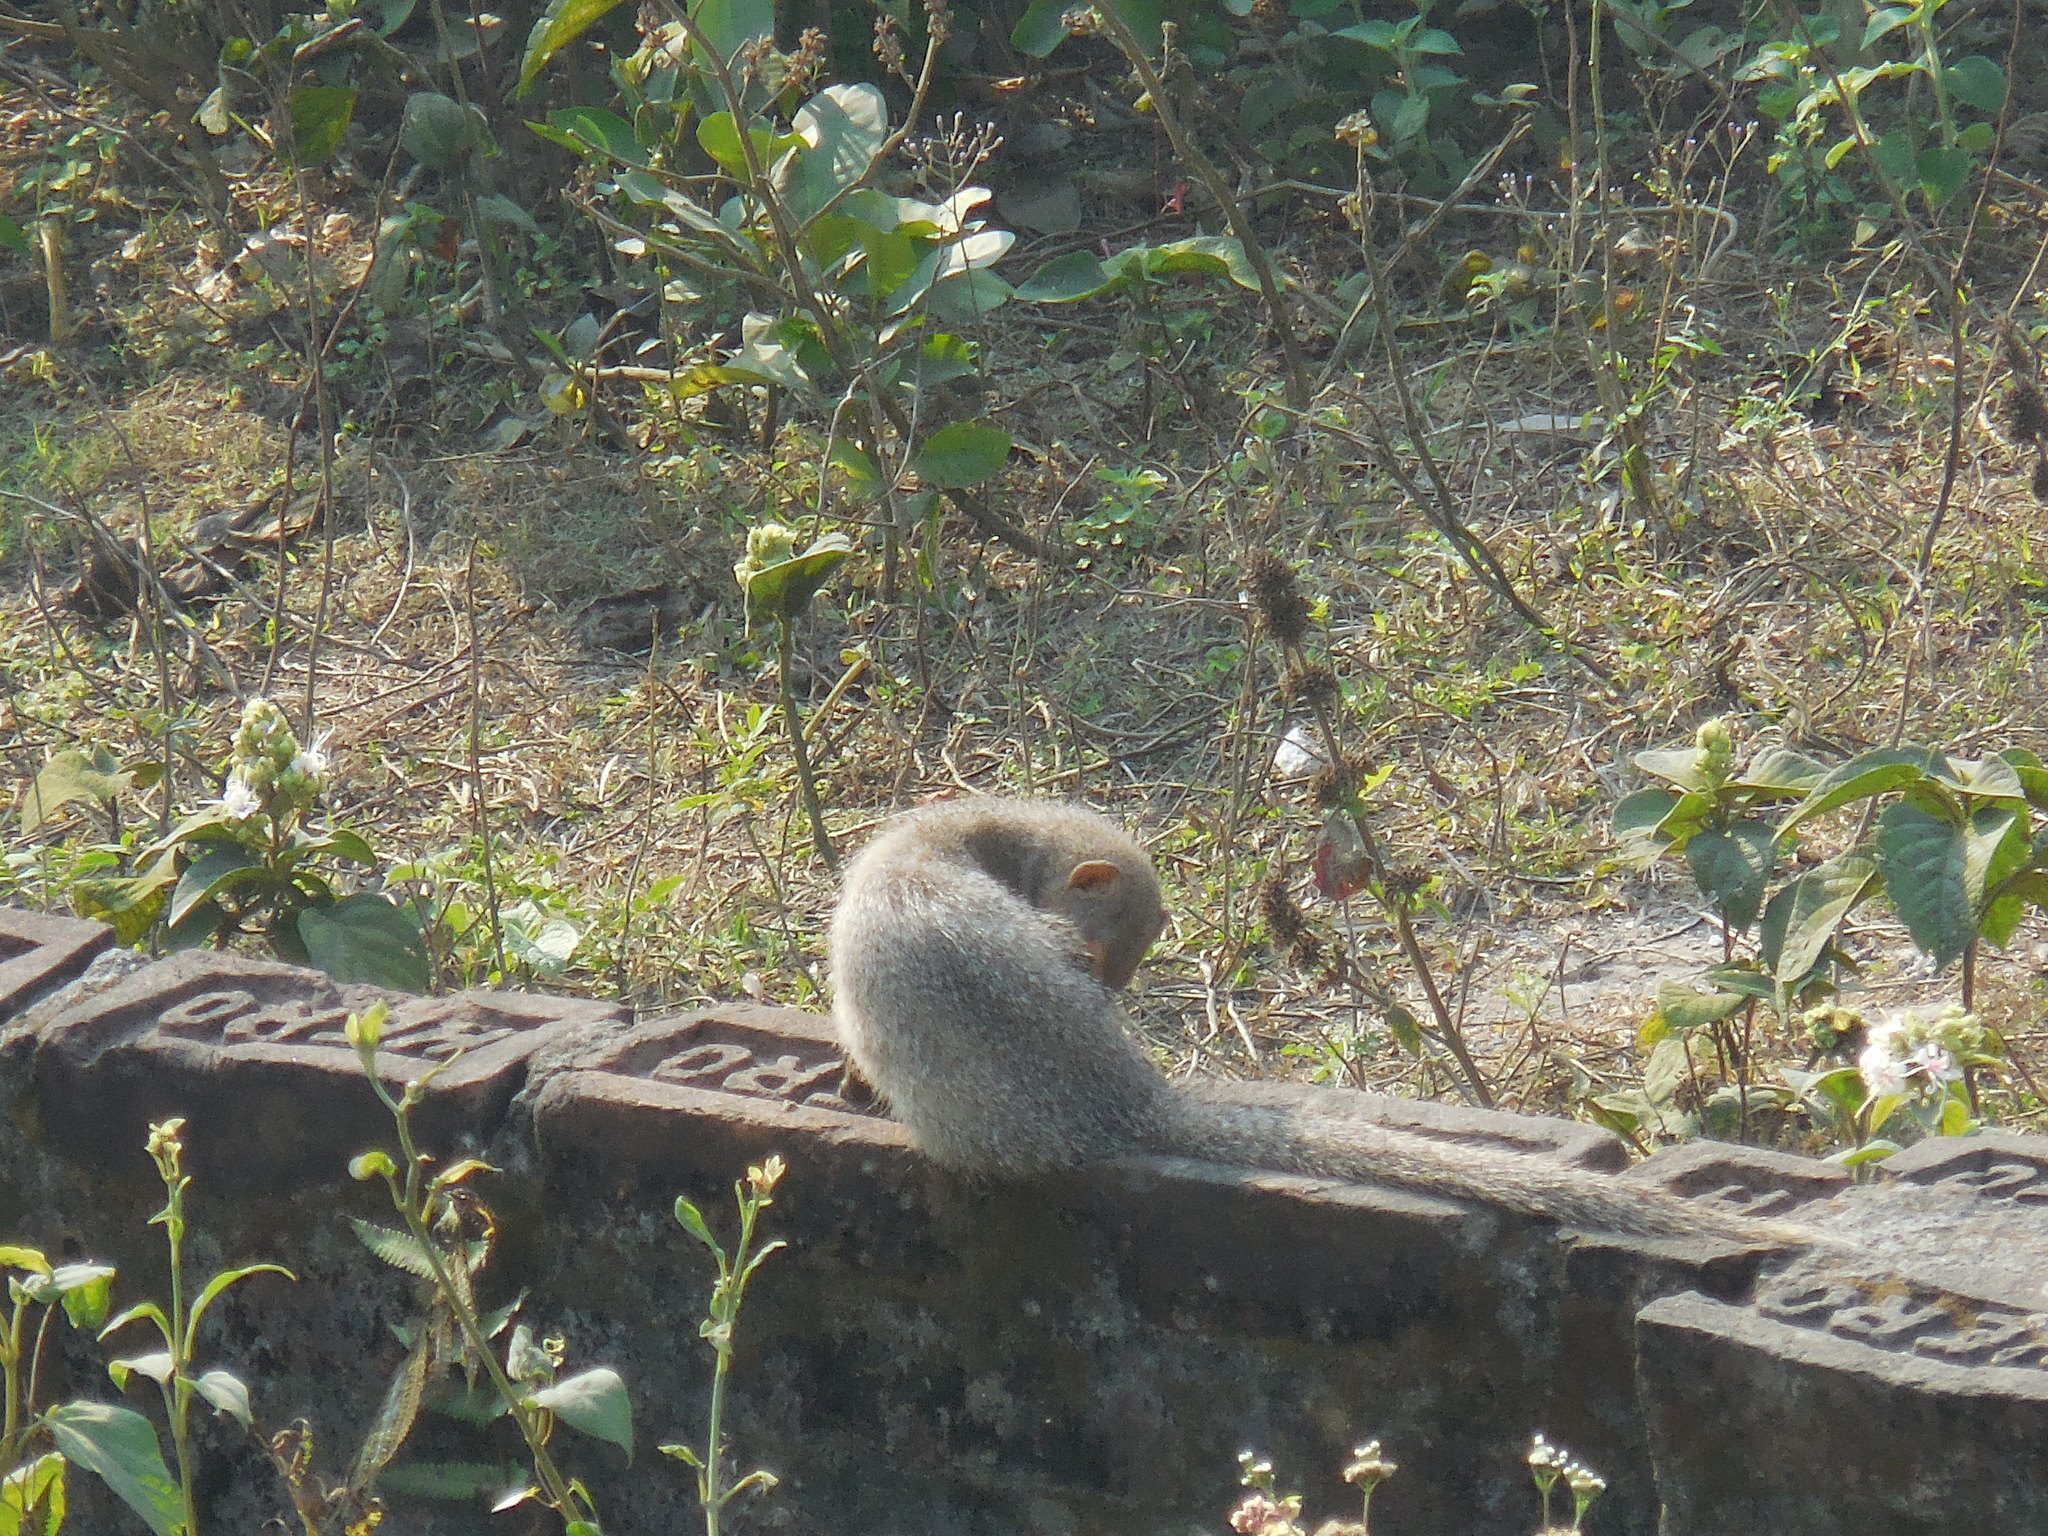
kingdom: Animalia
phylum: Chordata
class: Mammalia
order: Carnivora
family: Herpestidae
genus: Herpestes
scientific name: Herpestes javanicus
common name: Small asian mongoose
